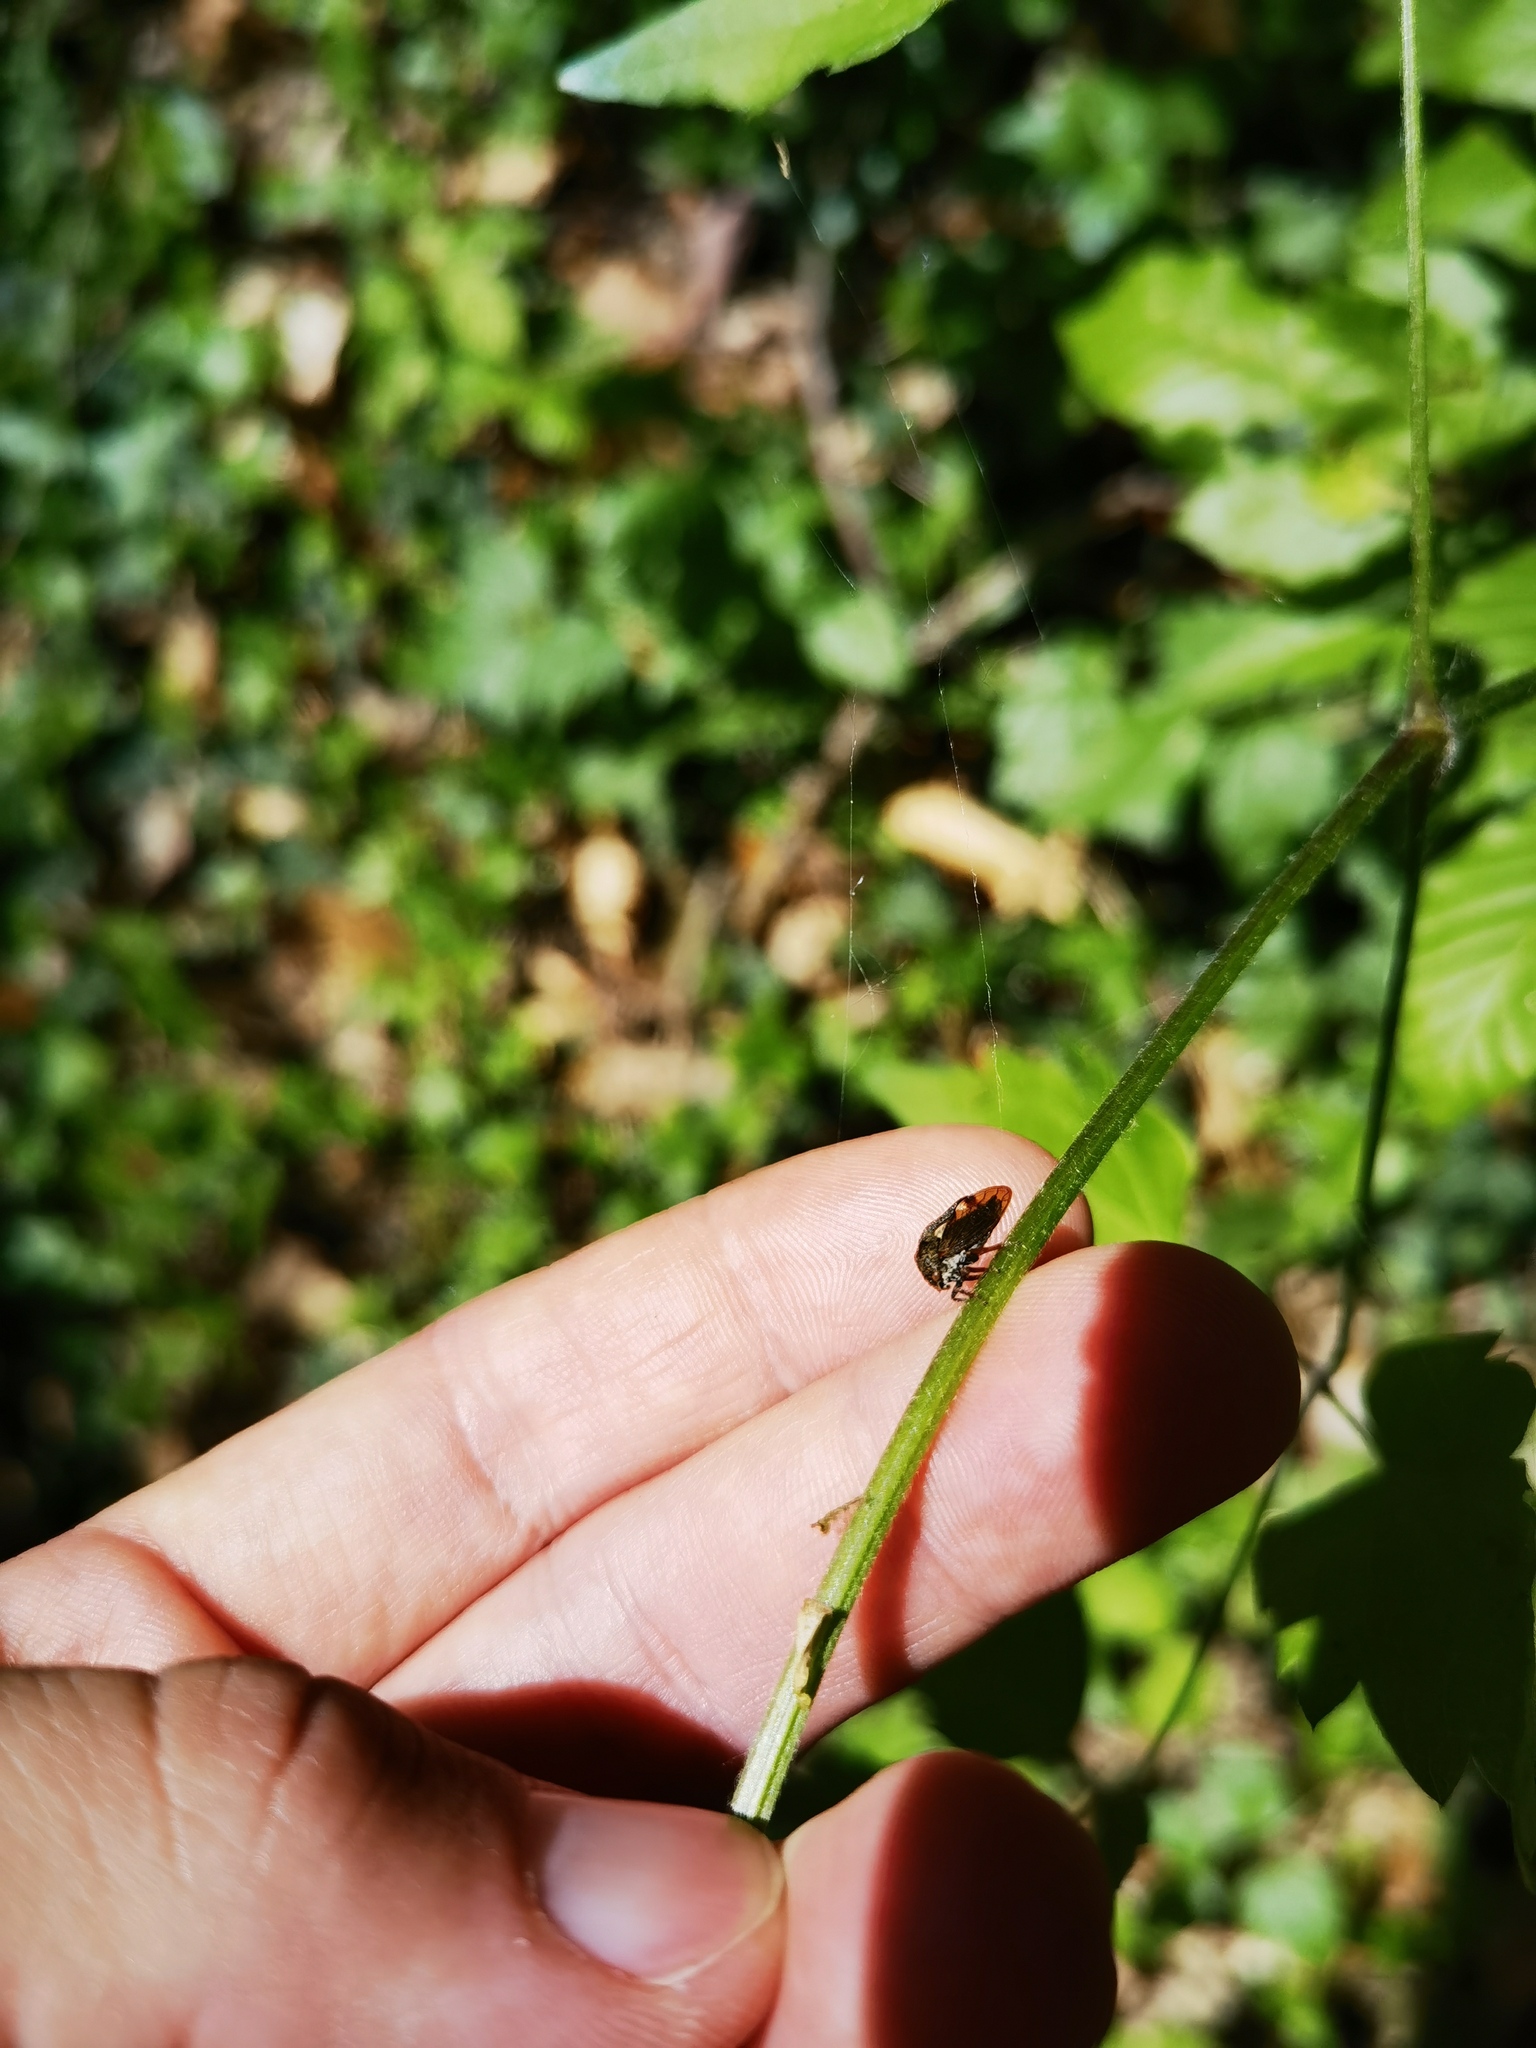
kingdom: Animalia
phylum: Arthropoda
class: Insecta
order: Hemiptera
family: Membracidae
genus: Centrotus
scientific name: Centrotus cornuta
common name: Treehopper
